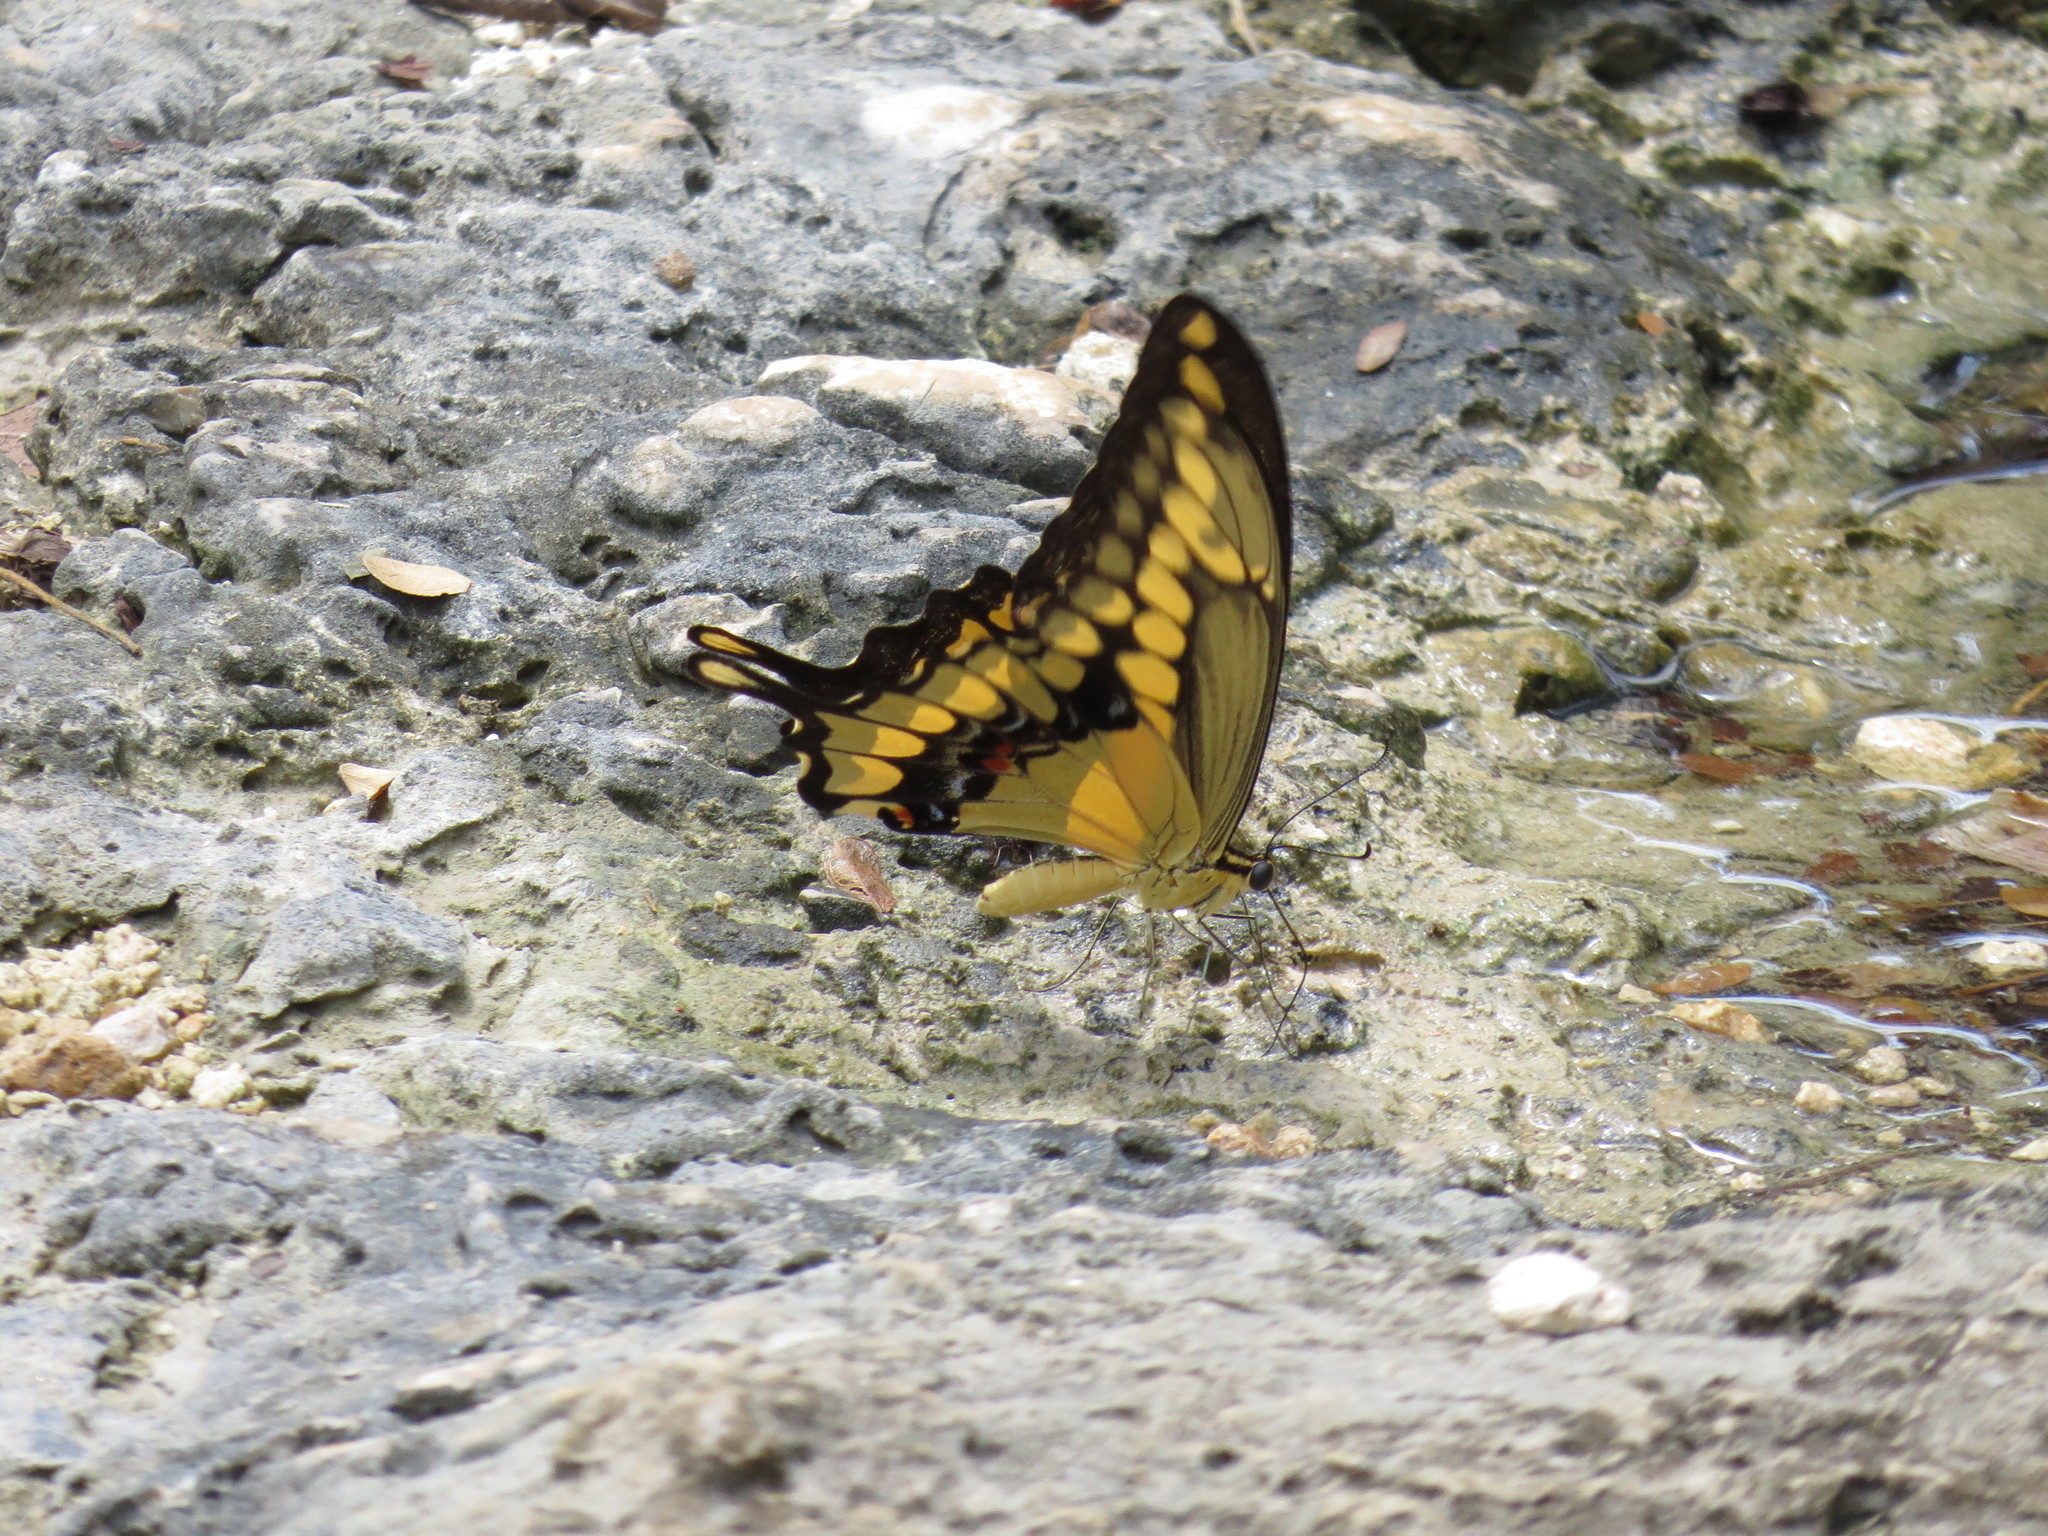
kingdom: Animalia
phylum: Arthropoda
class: Insecta
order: Lepidoptera
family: Papilionidae
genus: Papilio
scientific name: Papilio rumiko
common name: Western giant swallowtail
